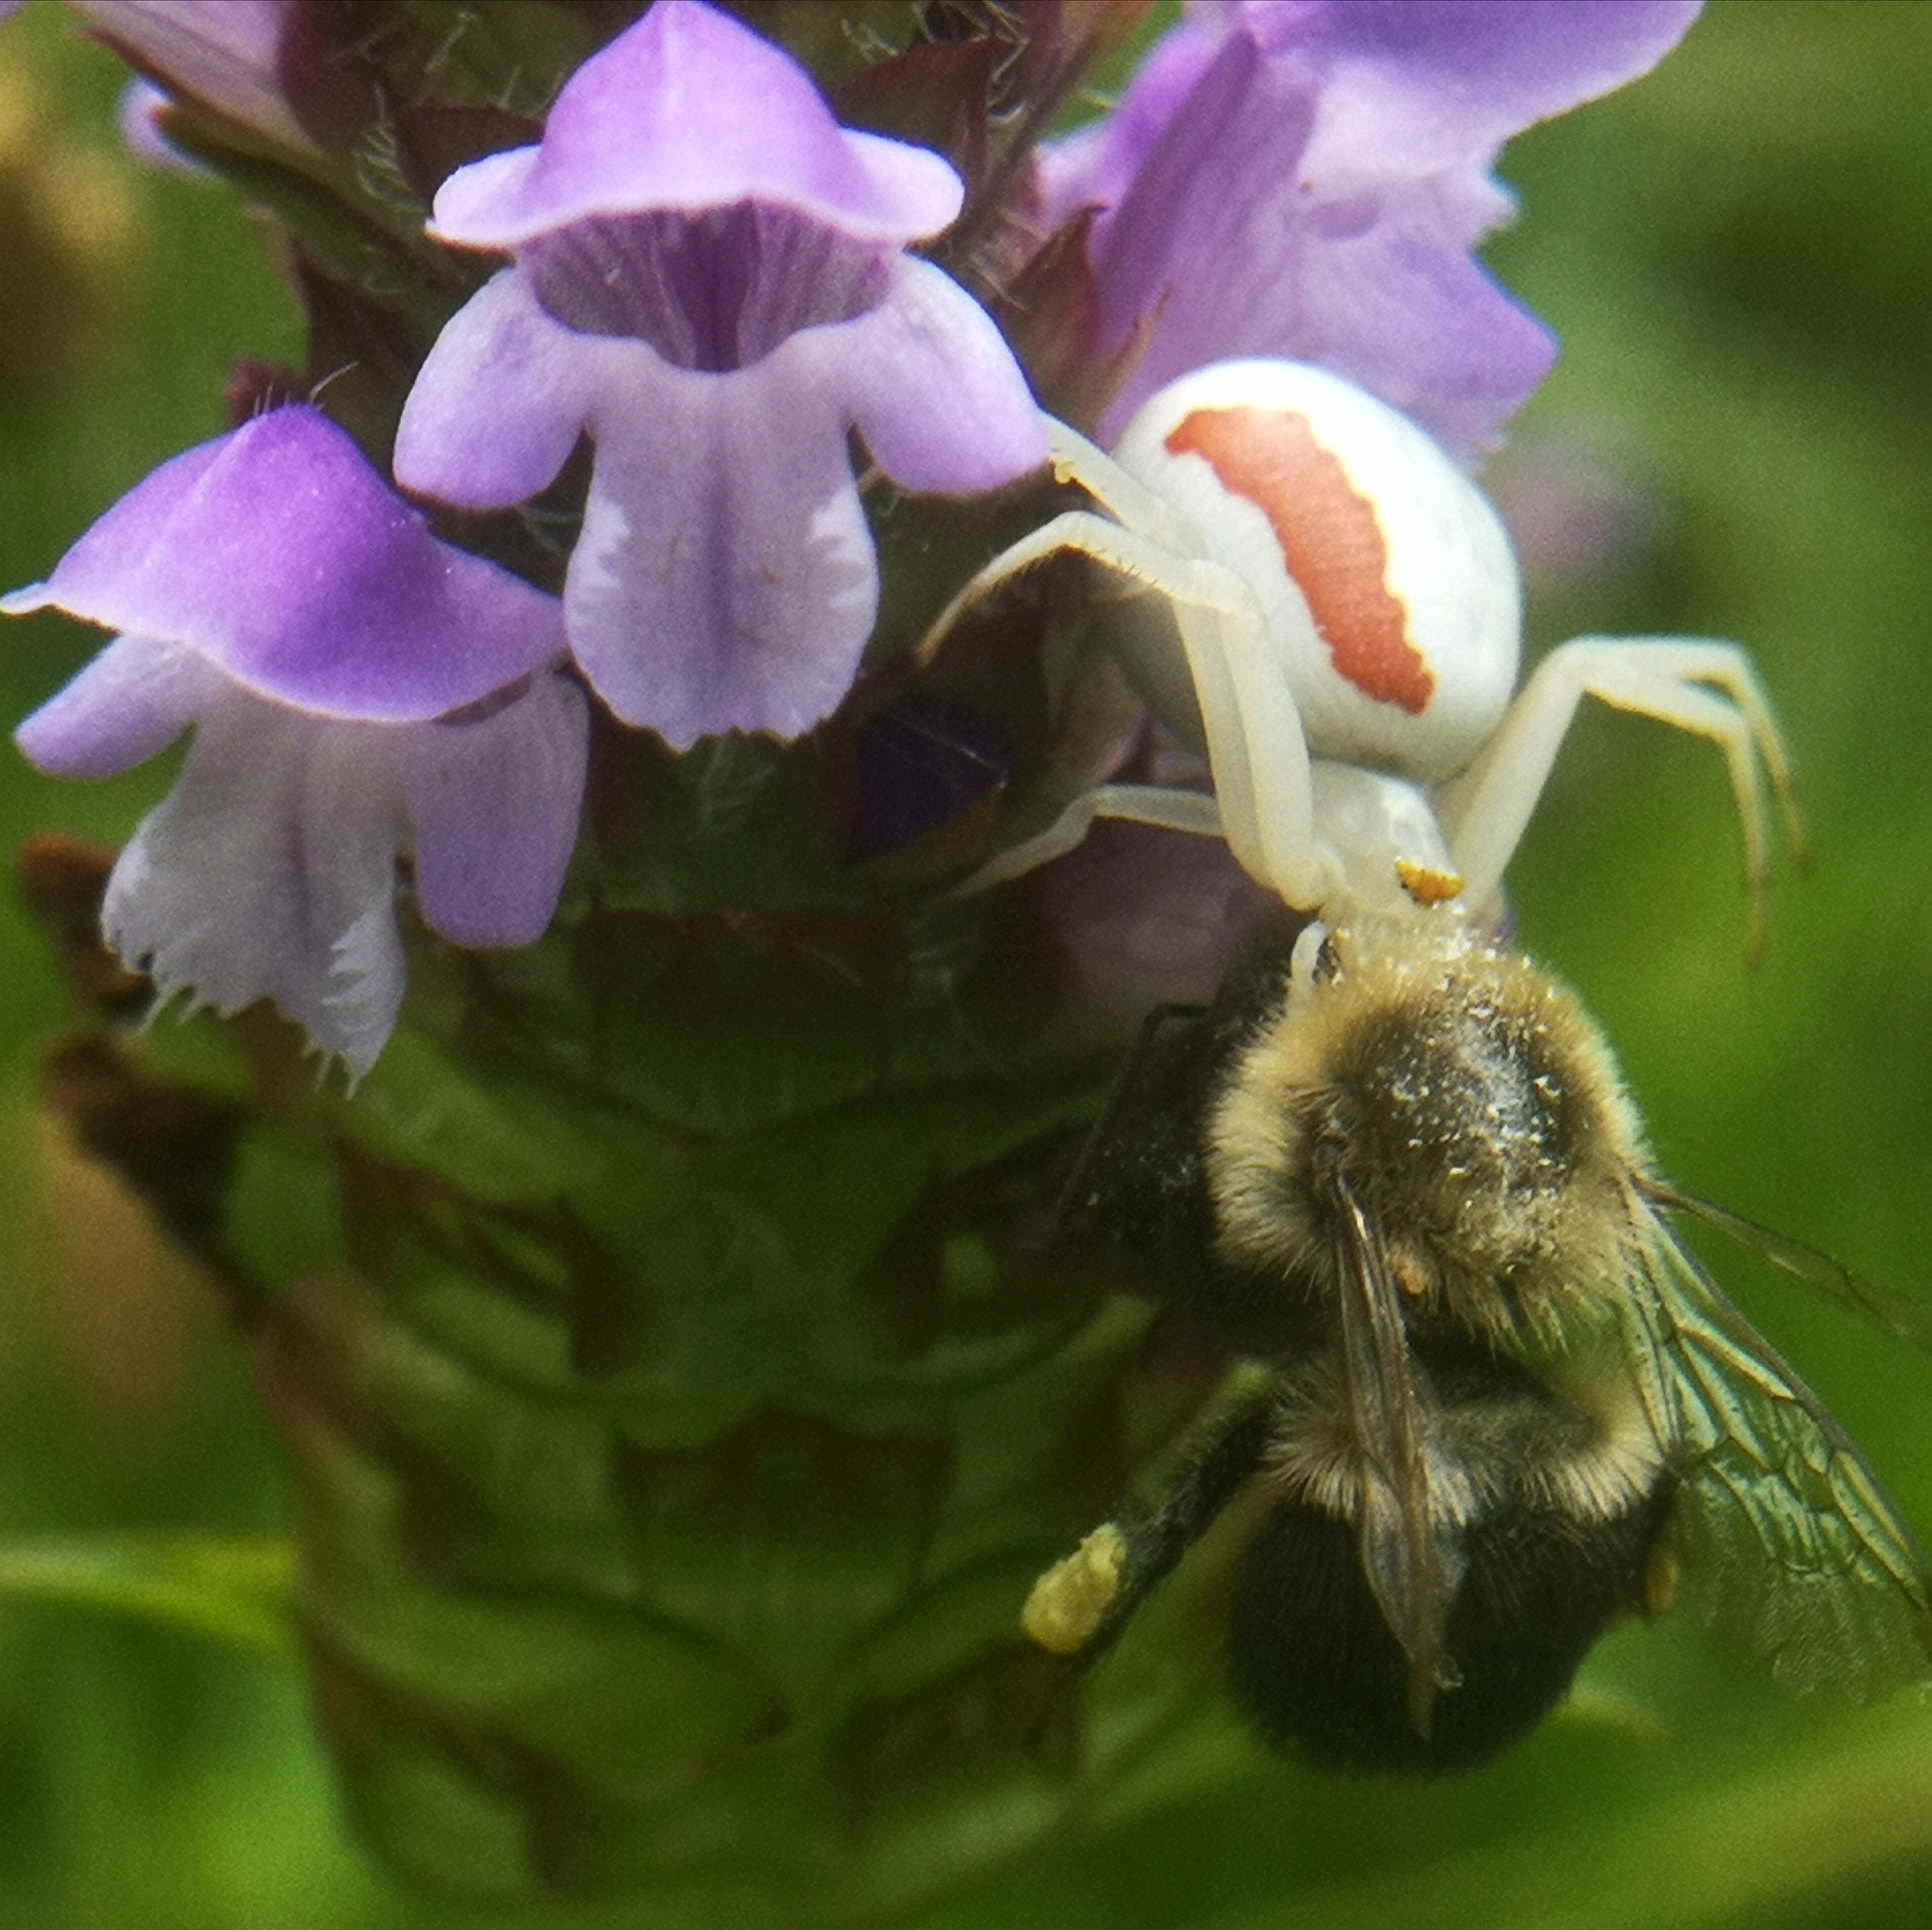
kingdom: Animalia
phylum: Arthropoda
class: Arachnida
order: Araneae
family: Thomisidae
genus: Misumena
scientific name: Misumena vatia
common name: Goldenrod crab spider
